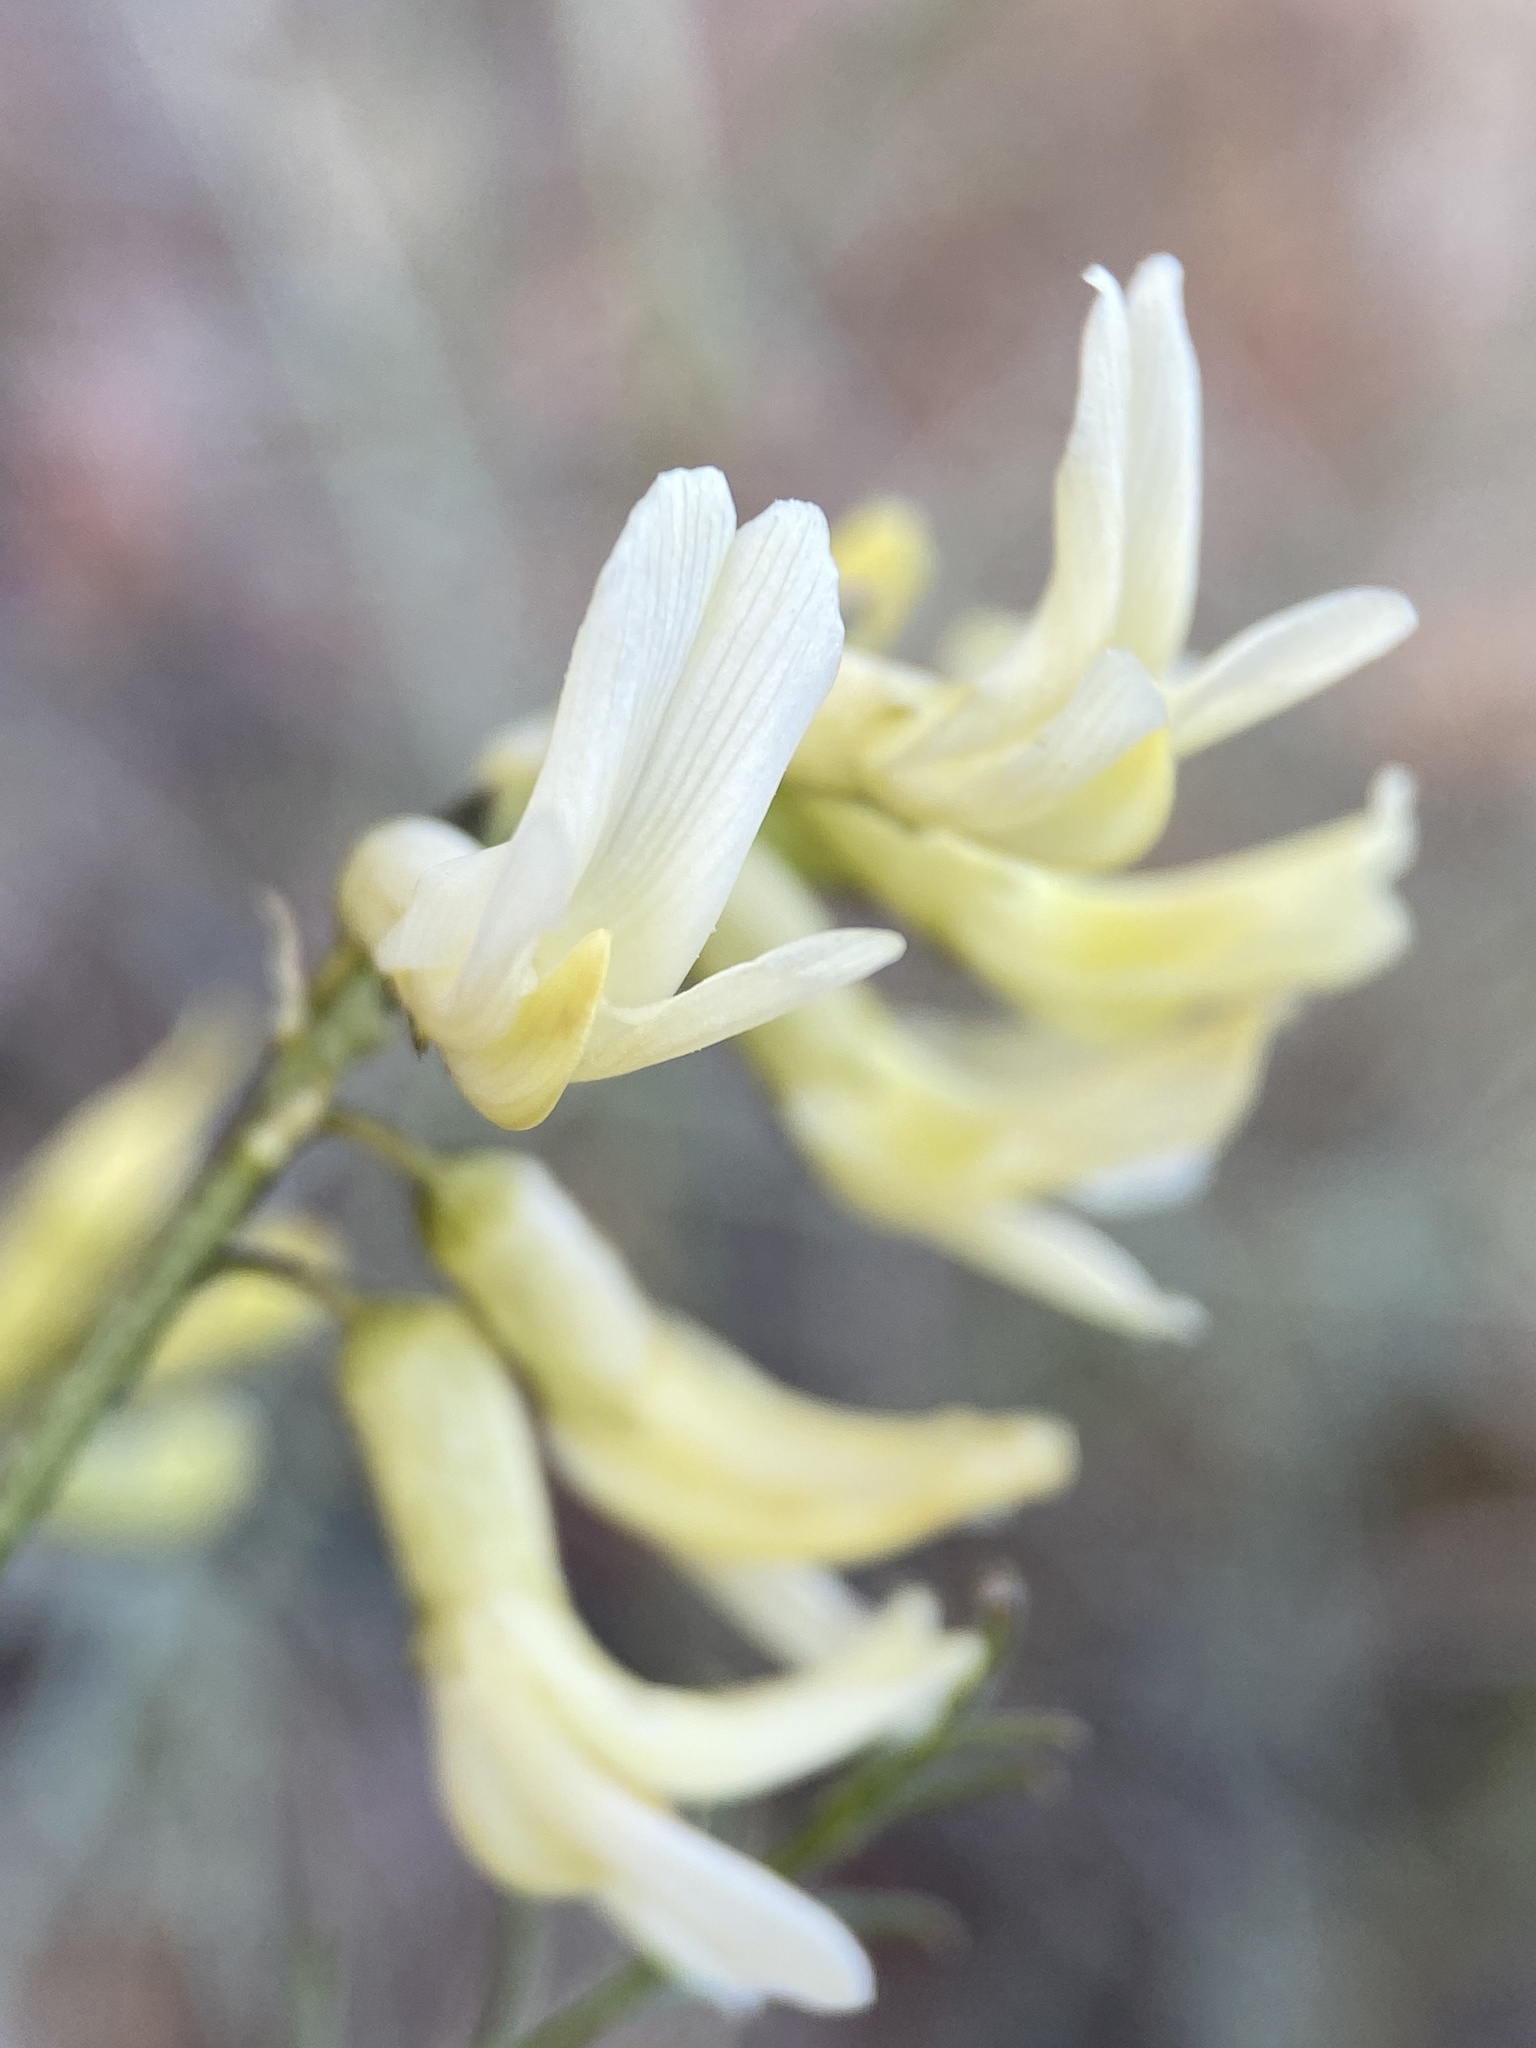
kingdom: Plantae
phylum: Tracheophyta
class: Magnoliopsida
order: Fabales
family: Fabaceae
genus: Astragalus
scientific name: Astragalus filipes
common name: Basalt milk-vetch
